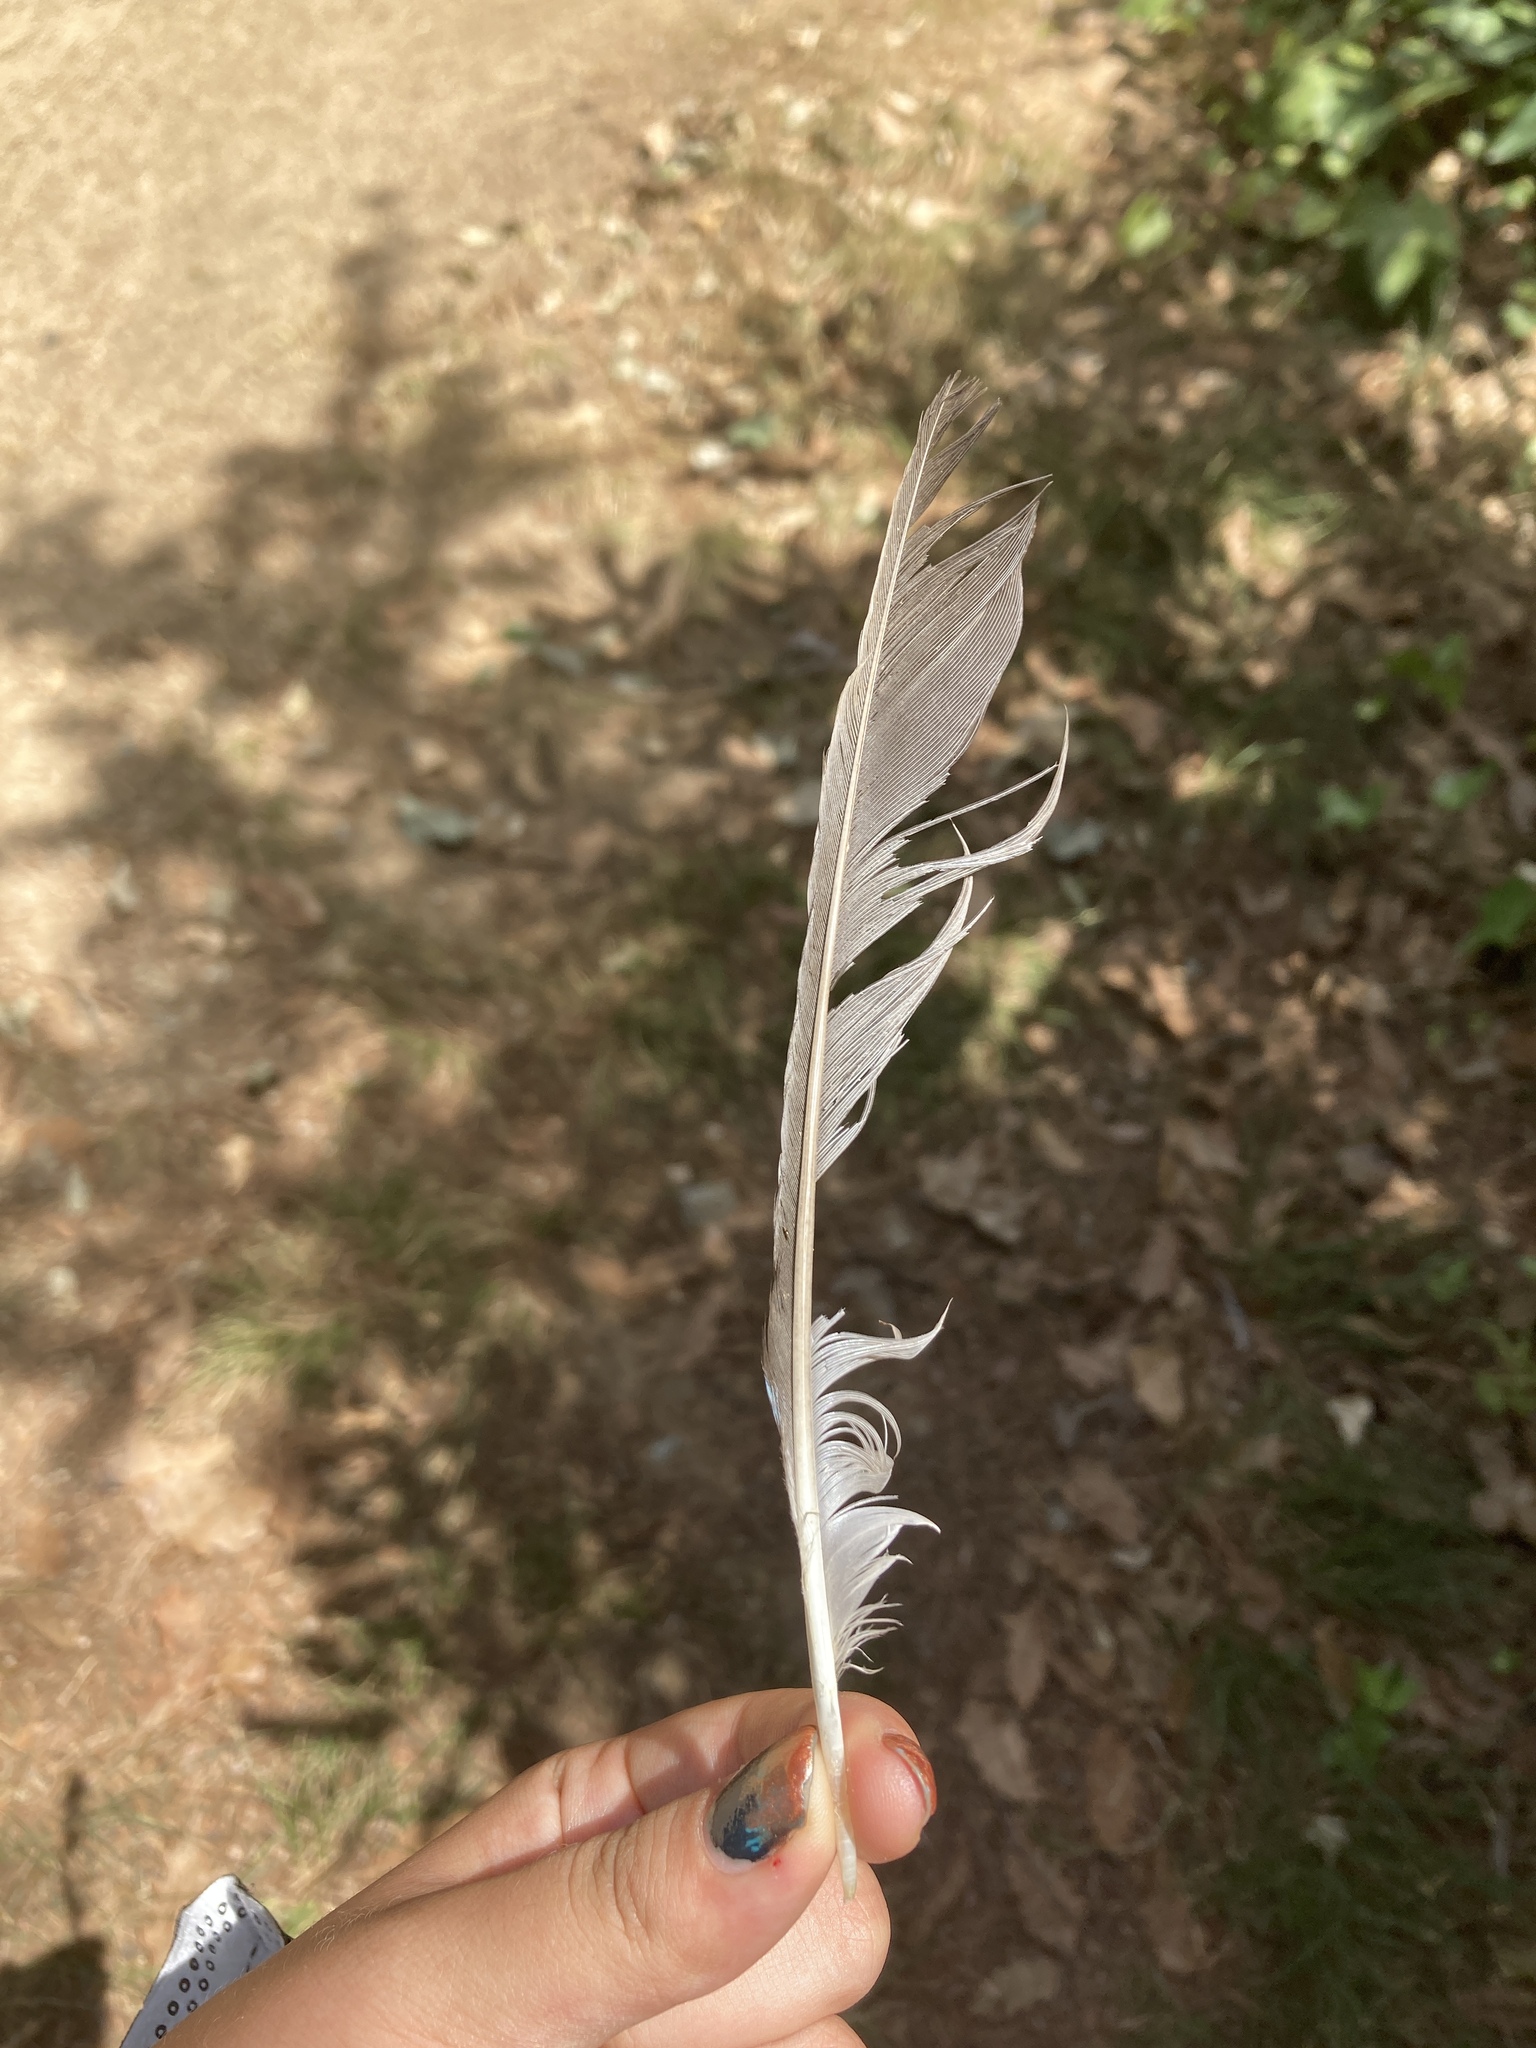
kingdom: Animalia
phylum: Chordata
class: Aves
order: Passeriformes
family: Corvidae
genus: Garrulus
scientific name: Garrulus glandarius
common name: Eurasian jay
